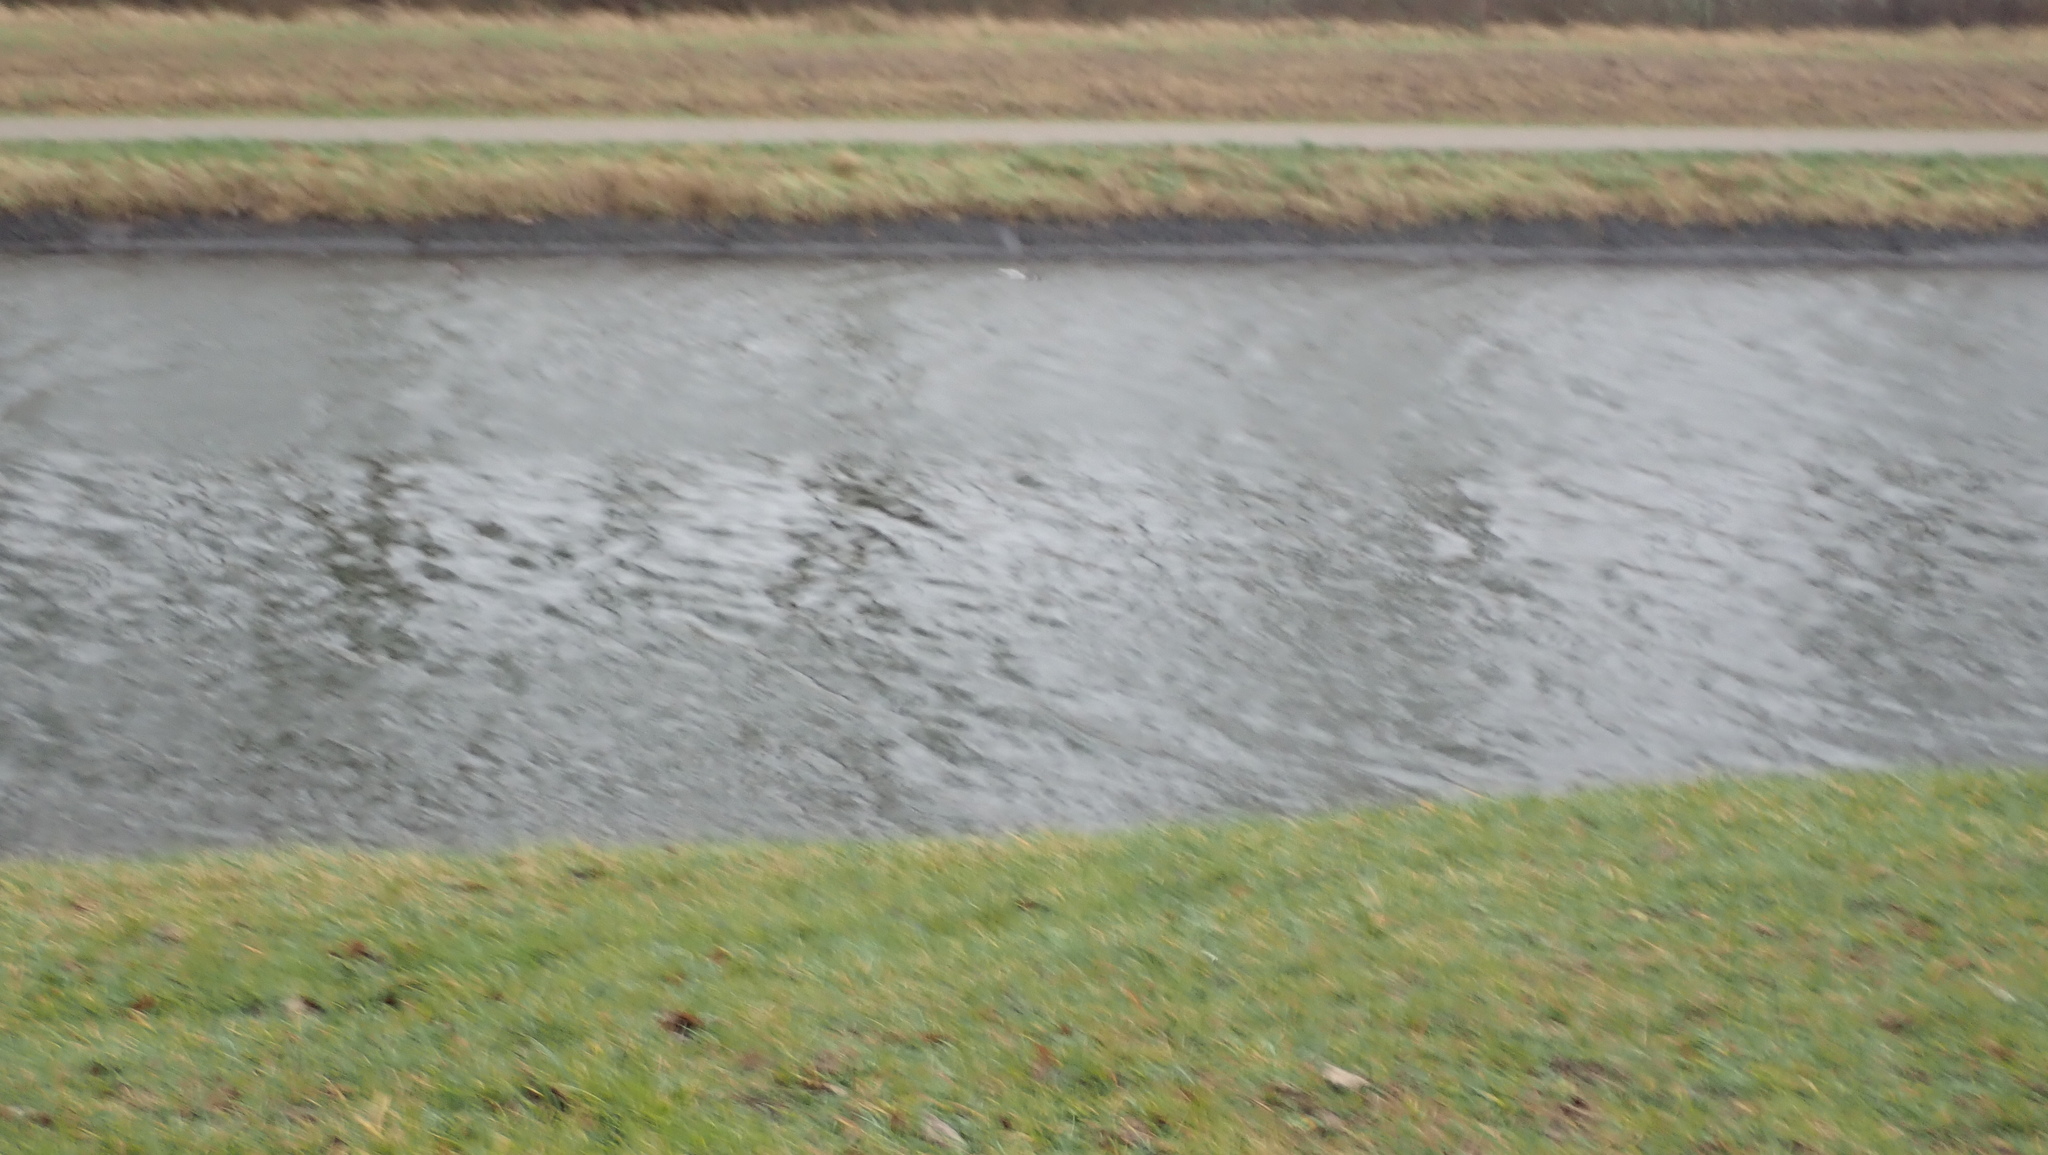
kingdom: Animalia
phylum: Chordata
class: Aves
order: Anseriformes
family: Anatidae
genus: Aythya
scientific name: Aythya fuligula
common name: Tufted duck
